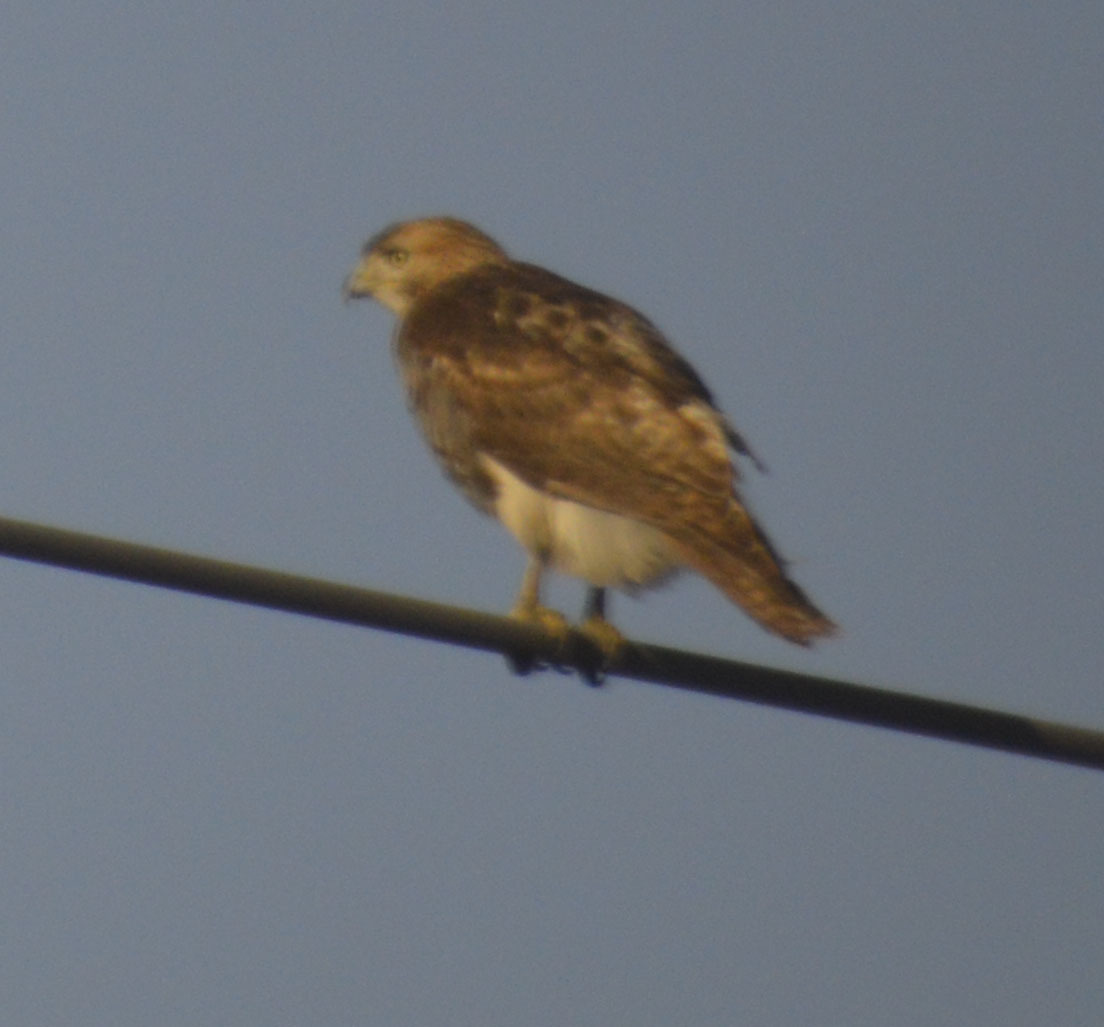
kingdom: Animalia
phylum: Chordata
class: Aves
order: Accipitriformes
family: Accipitridae
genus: Buteo
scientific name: Buteo jamaicensis
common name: Red-tailed hawk
